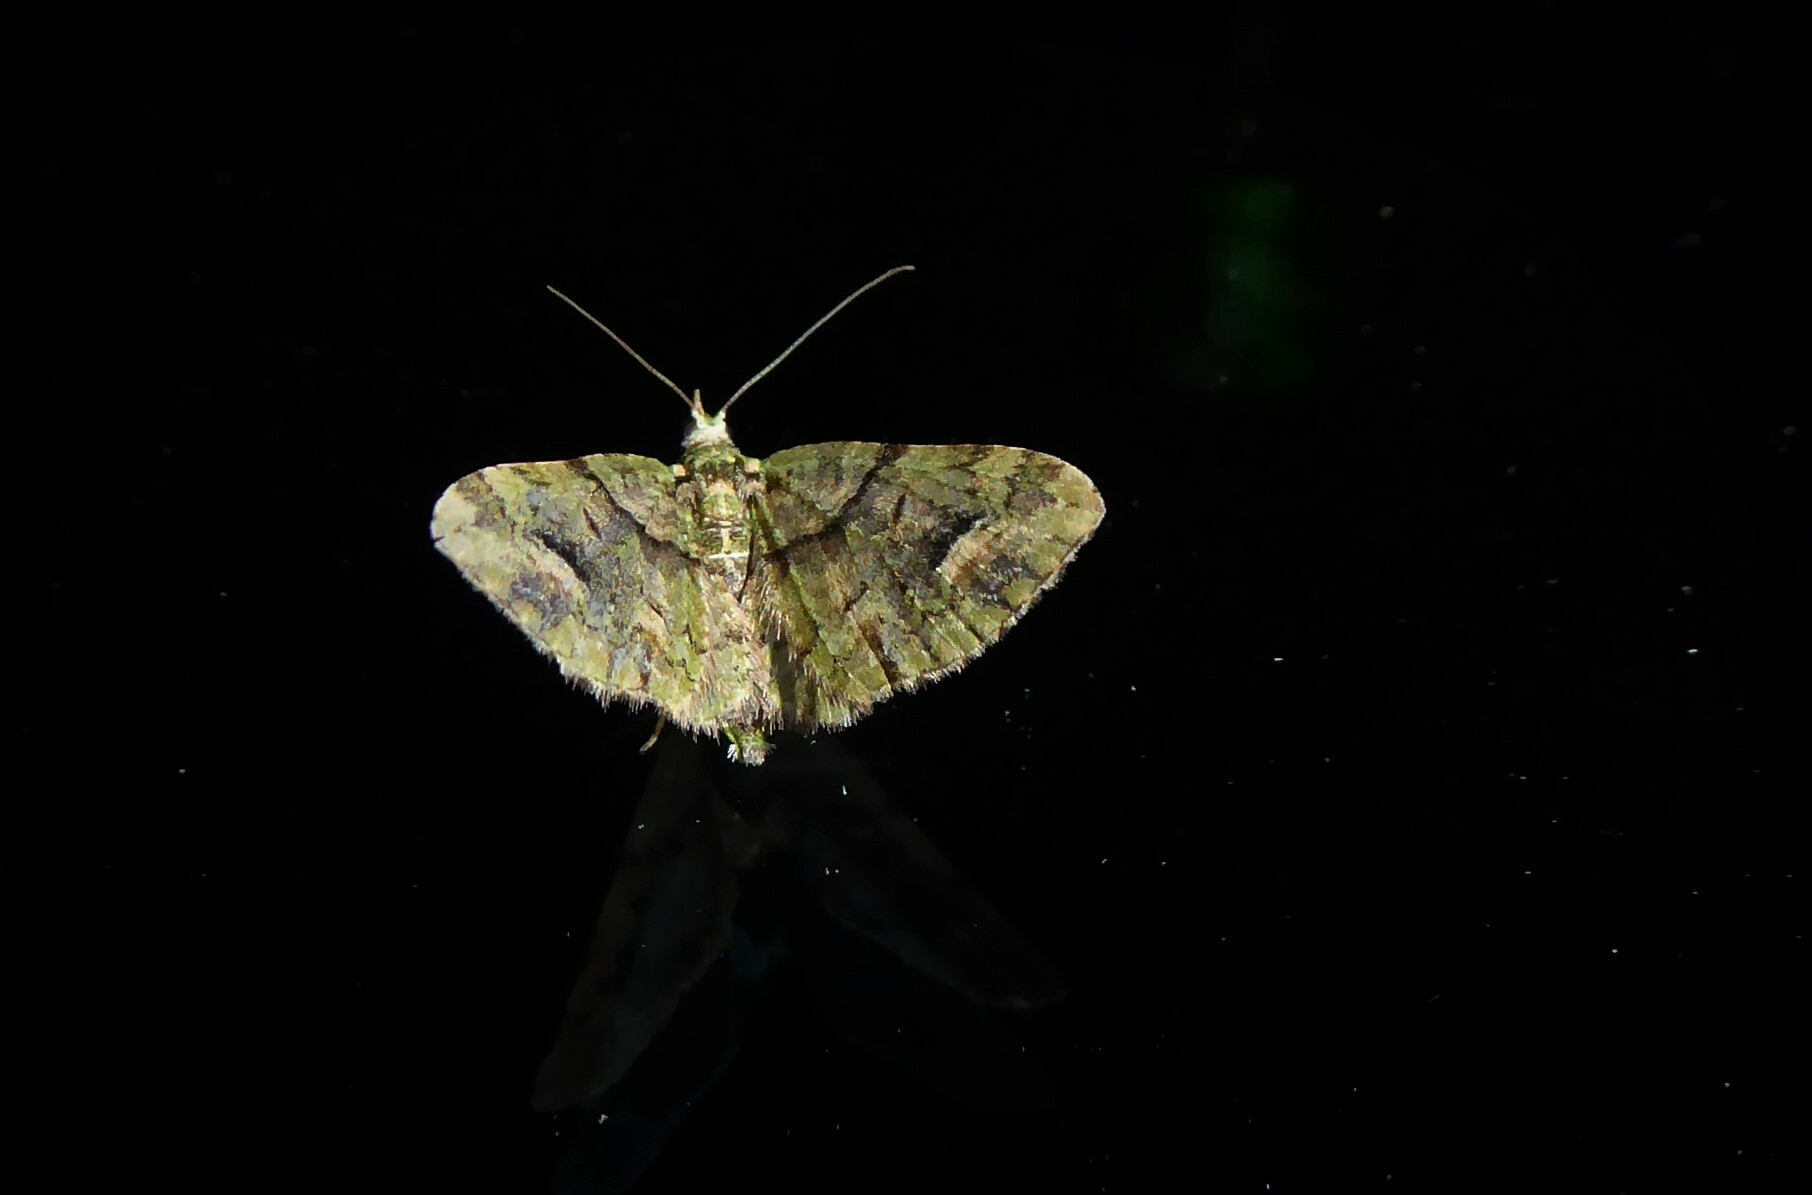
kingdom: Animalia
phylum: Arthropoda
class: Insecta
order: Lepidoptera
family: Geometridae
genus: Idaea
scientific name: Idaea mutanda
